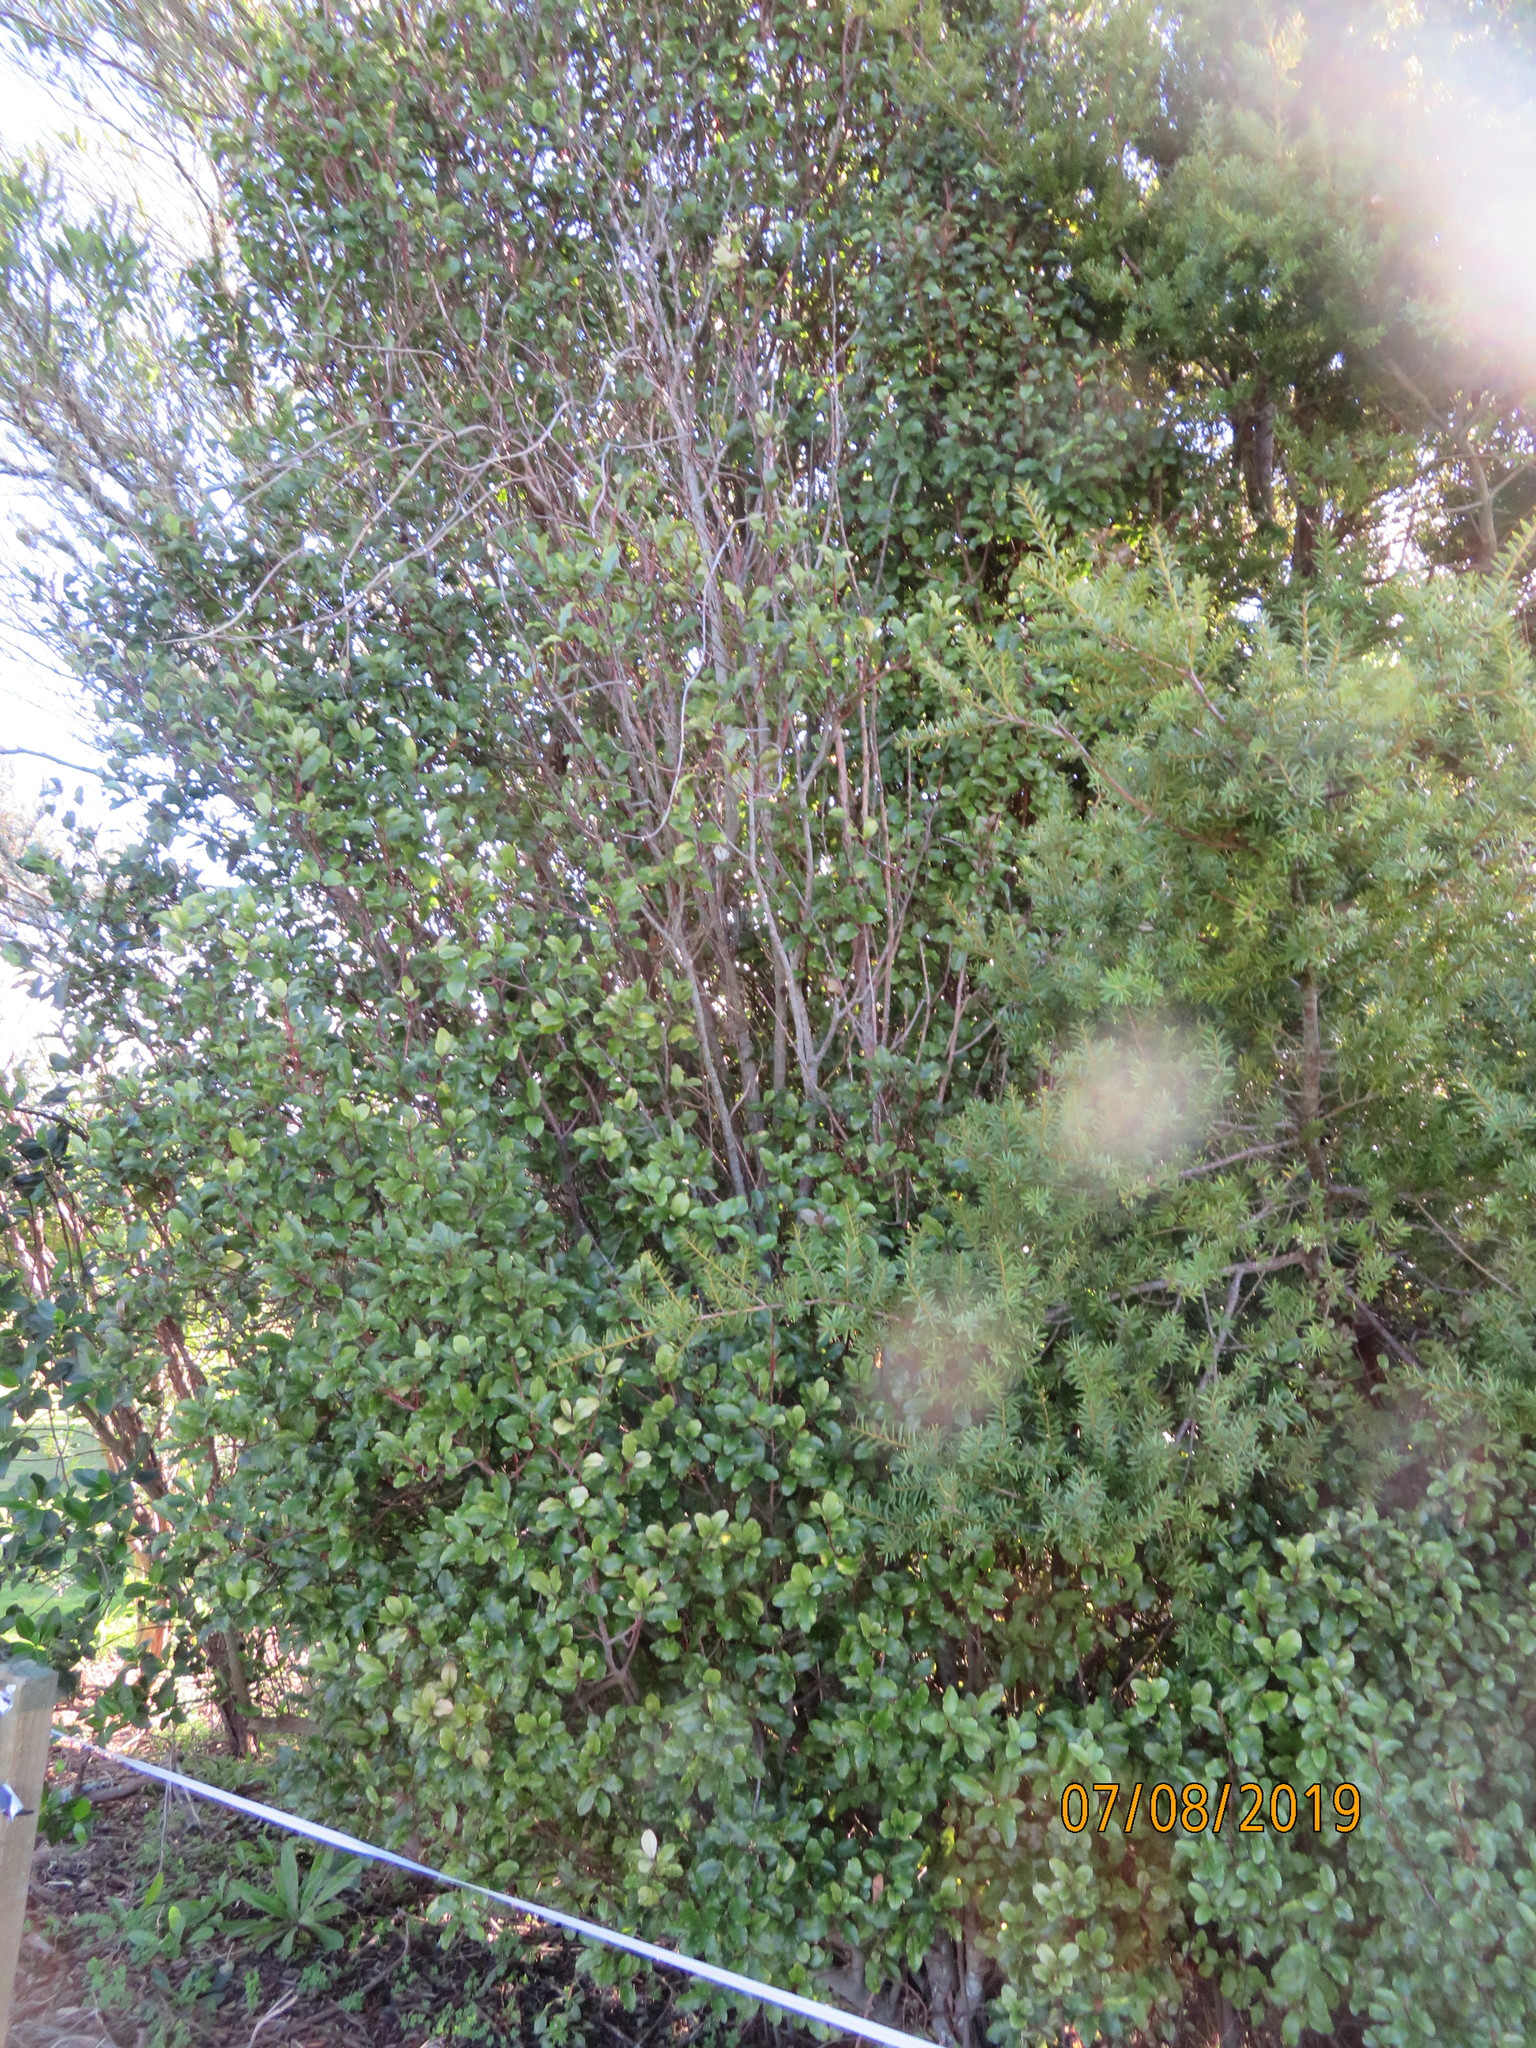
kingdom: Plantae
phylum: Tracheophyta
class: Magnoliopsida
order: Ericales
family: Primulaceae
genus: Myrsine
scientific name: Myrsine australis
